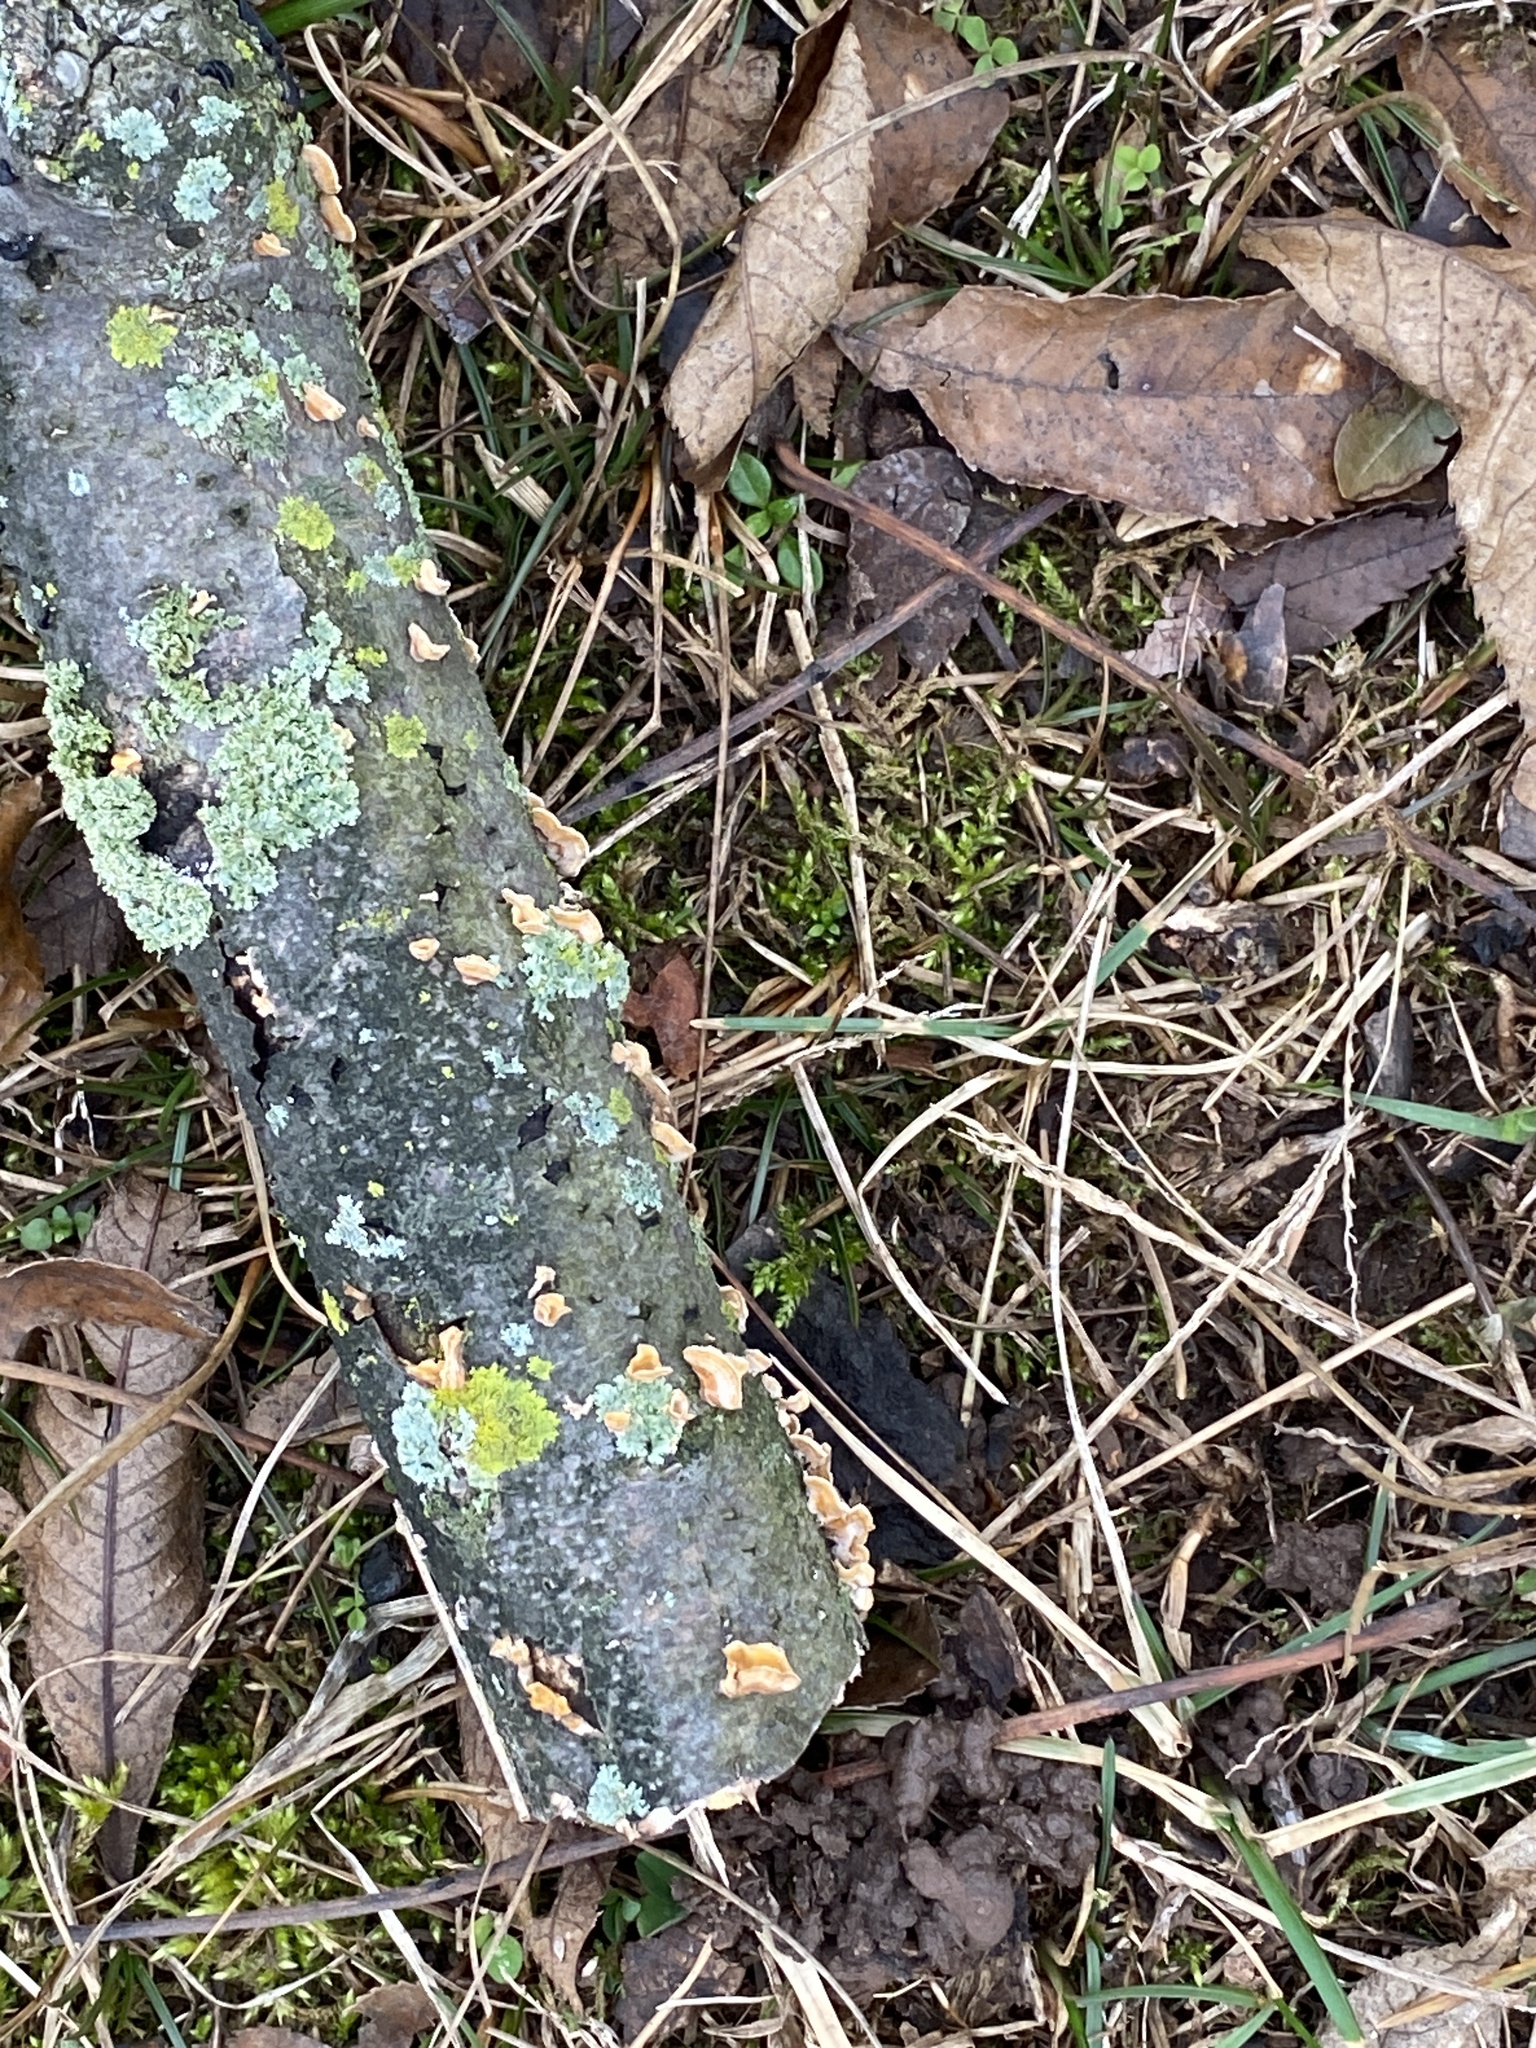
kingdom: Fungi
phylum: Basidiomycota
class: Agaricomycetes
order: Russulales
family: Stereaceae
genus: Stereum
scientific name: Stereum complicatum
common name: Crowded parchment
